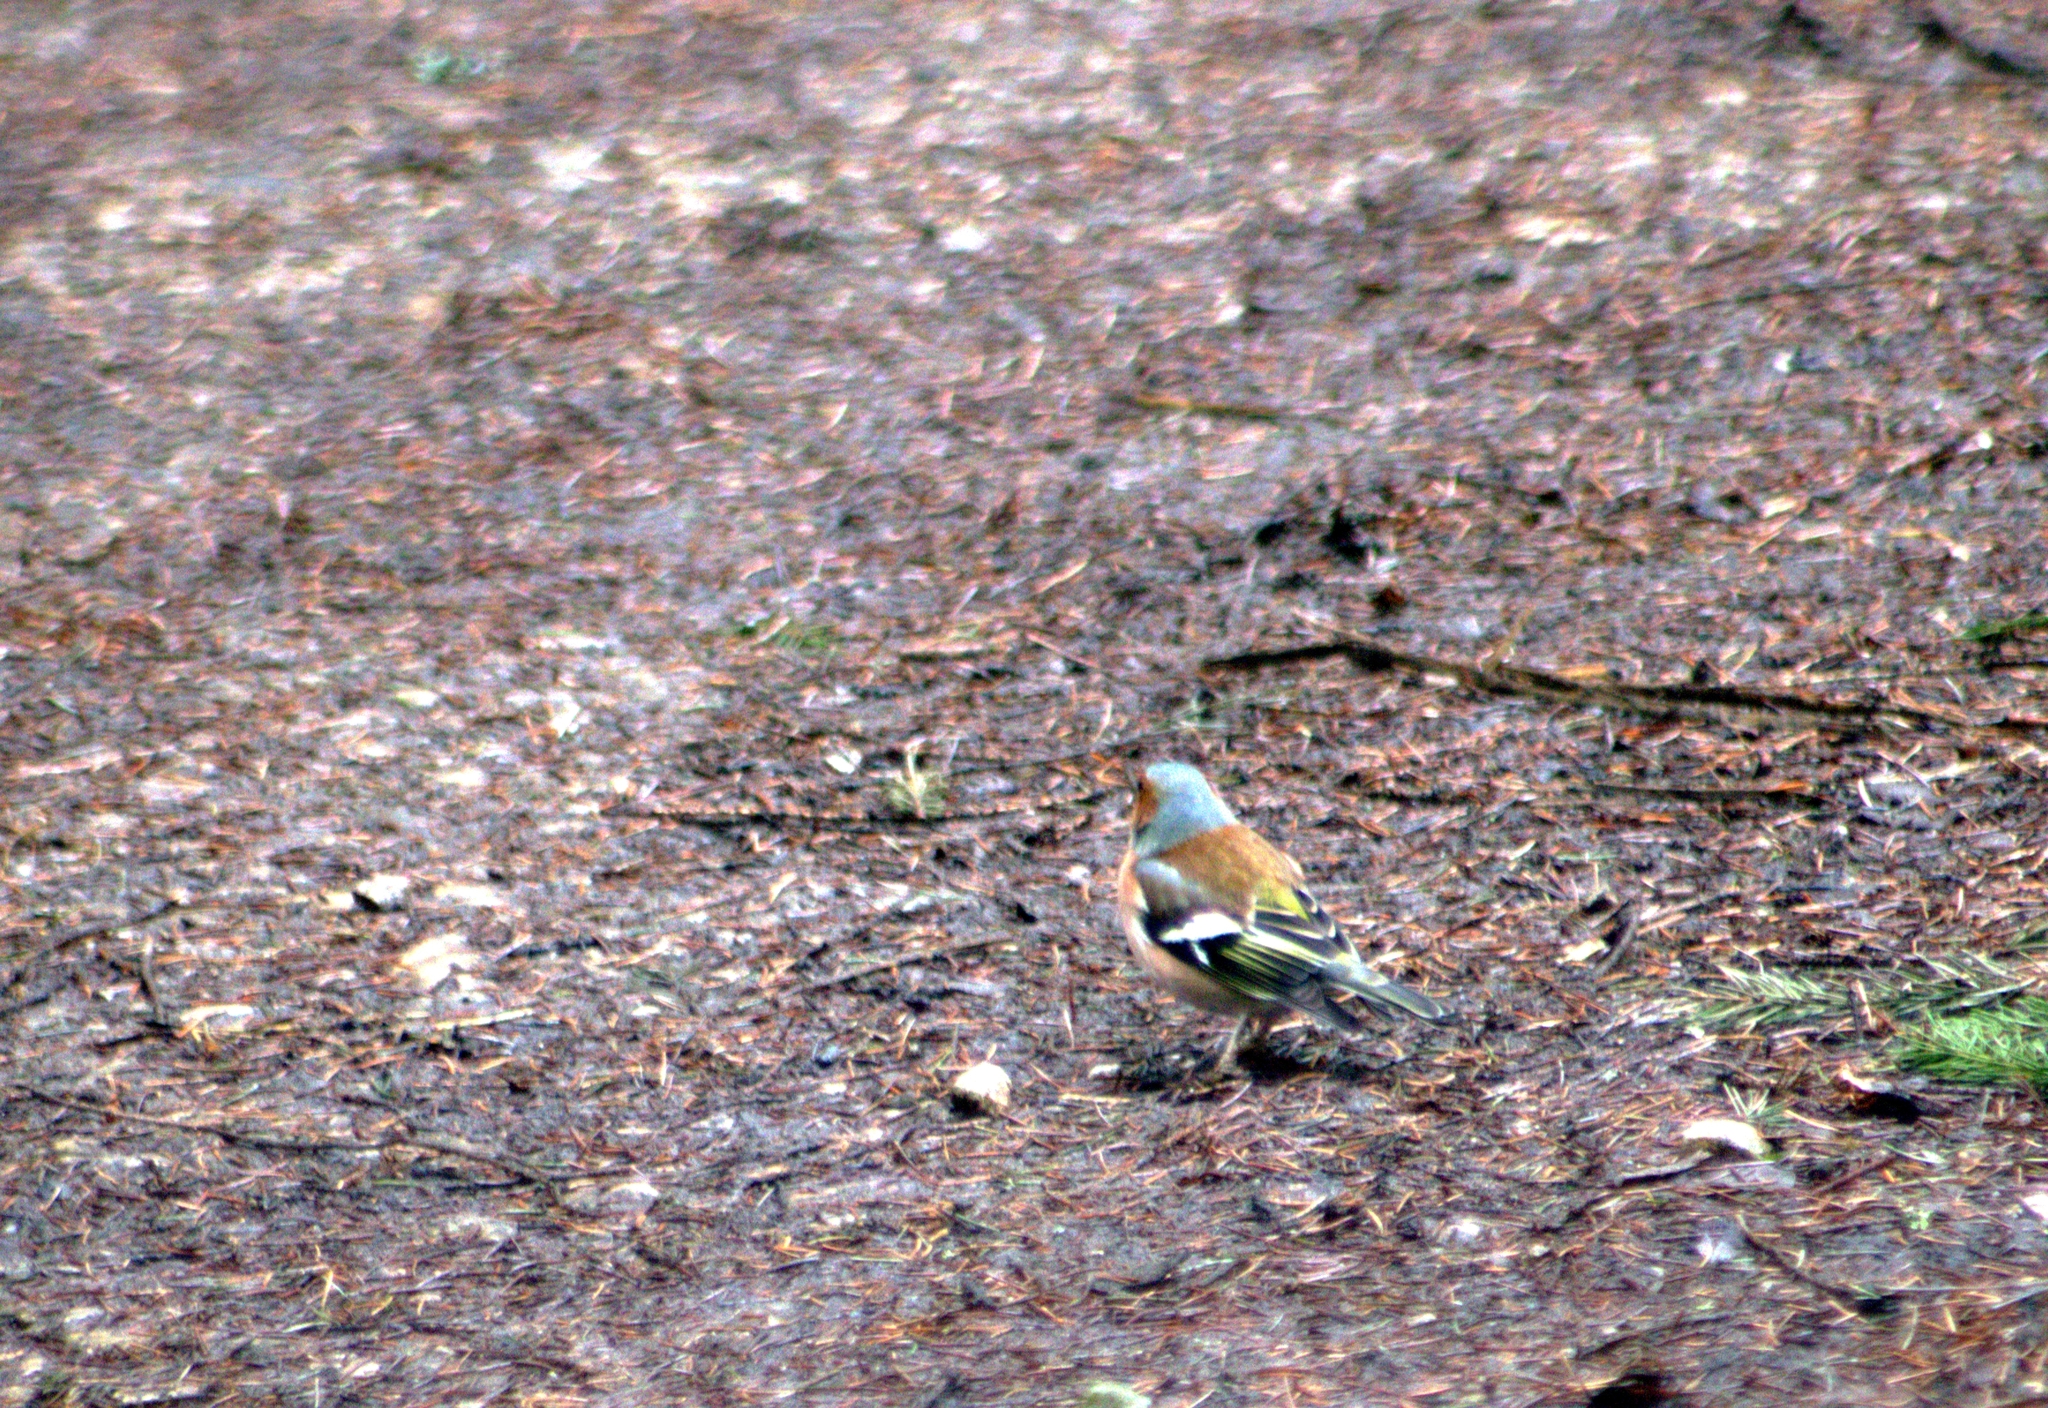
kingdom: Animalia
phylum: Chordata
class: Aves
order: Passeriformes
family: Fringillidae
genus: Fringilla
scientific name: Fringilla coelebs
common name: Common chaffinch
